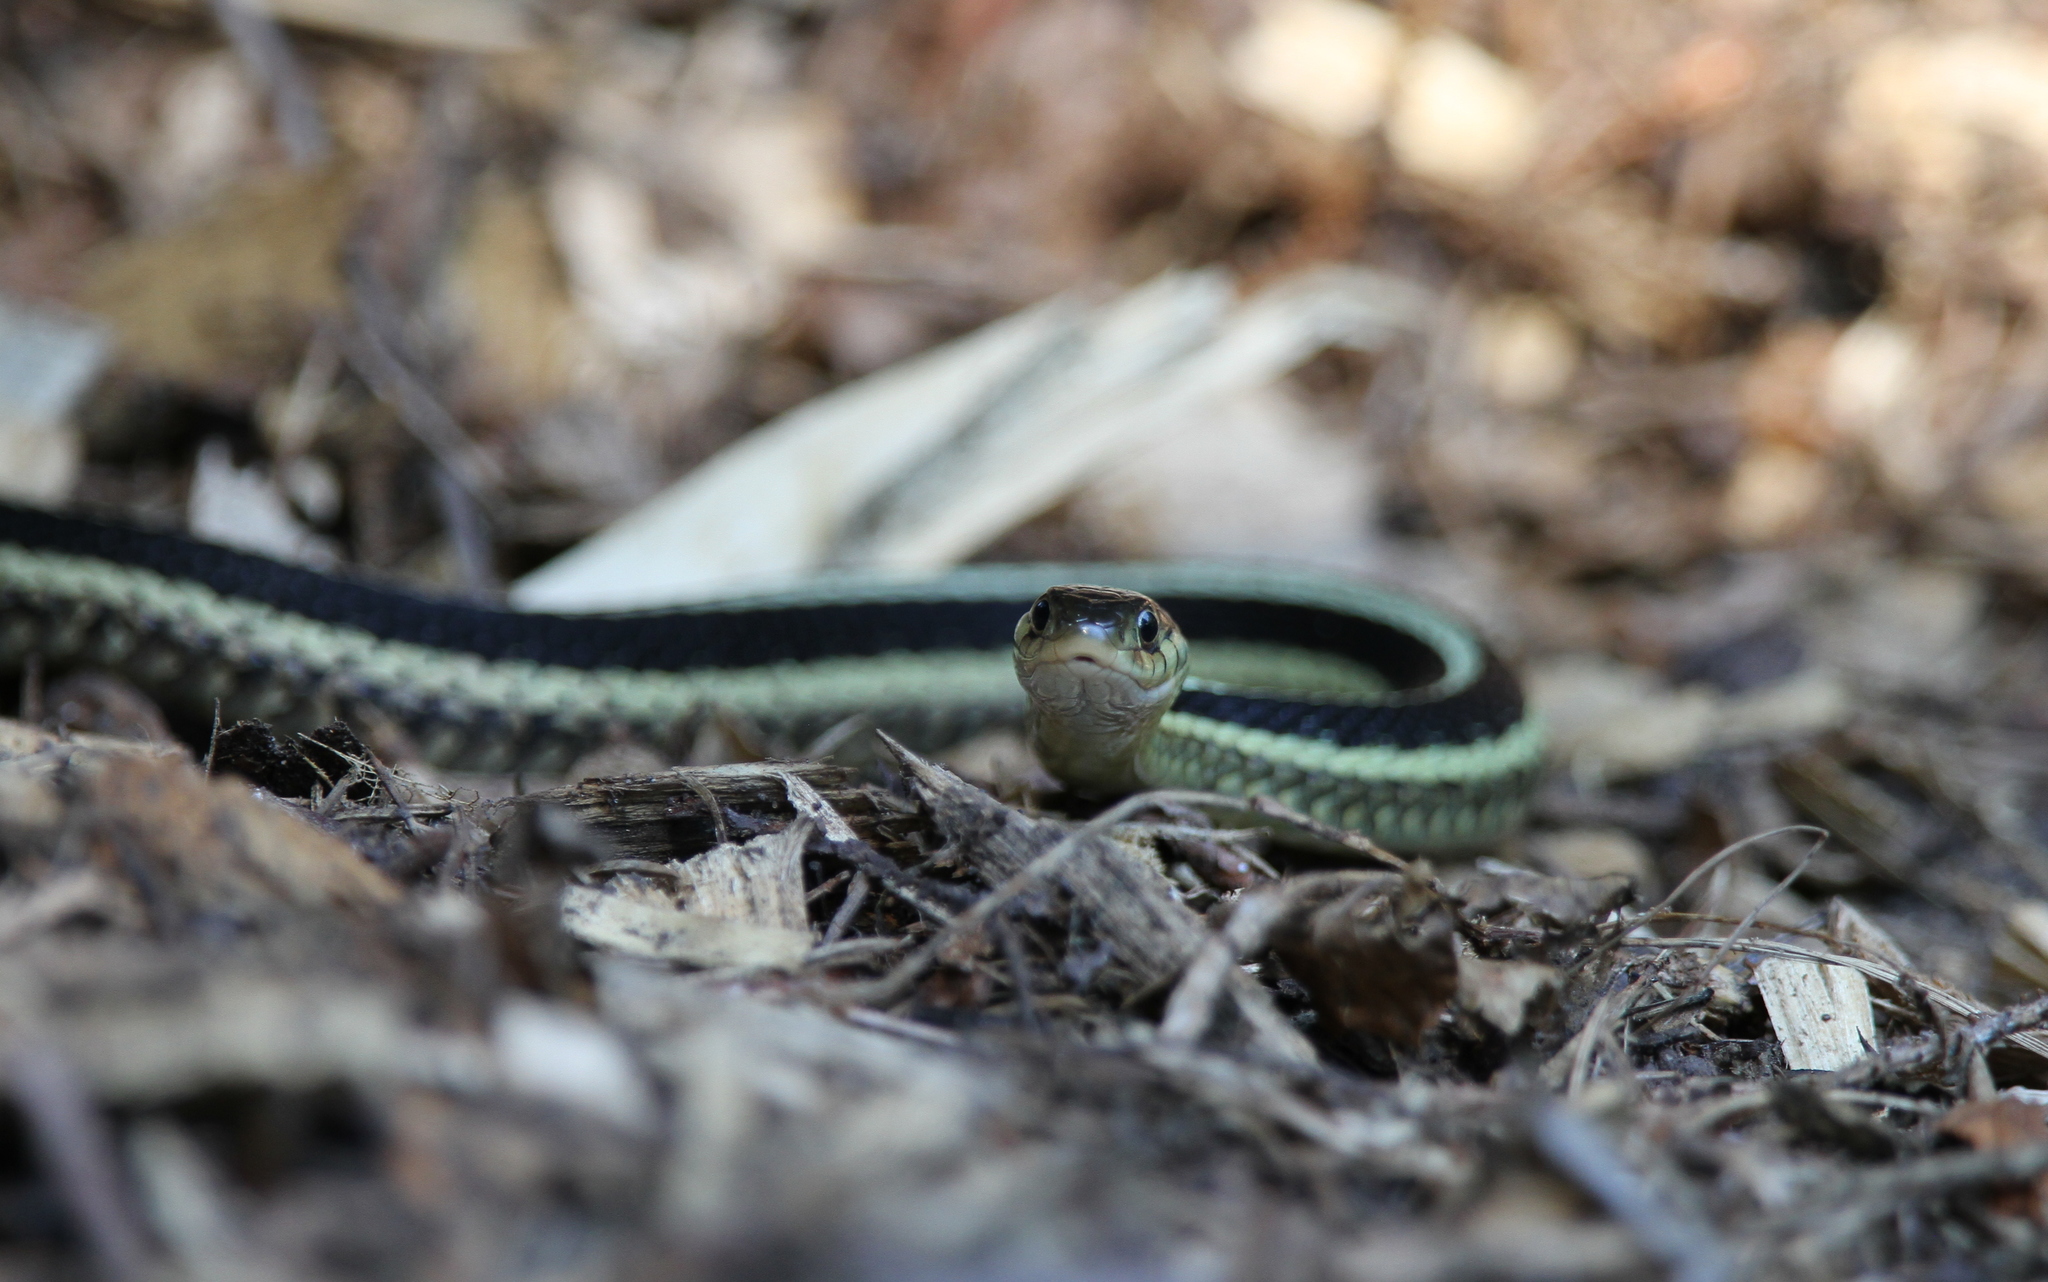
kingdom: Animalia
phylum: Chordata
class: Squamata
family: Colubridae
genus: Thamnophis
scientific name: Thamnophis sirtalis
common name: Common garter snake
